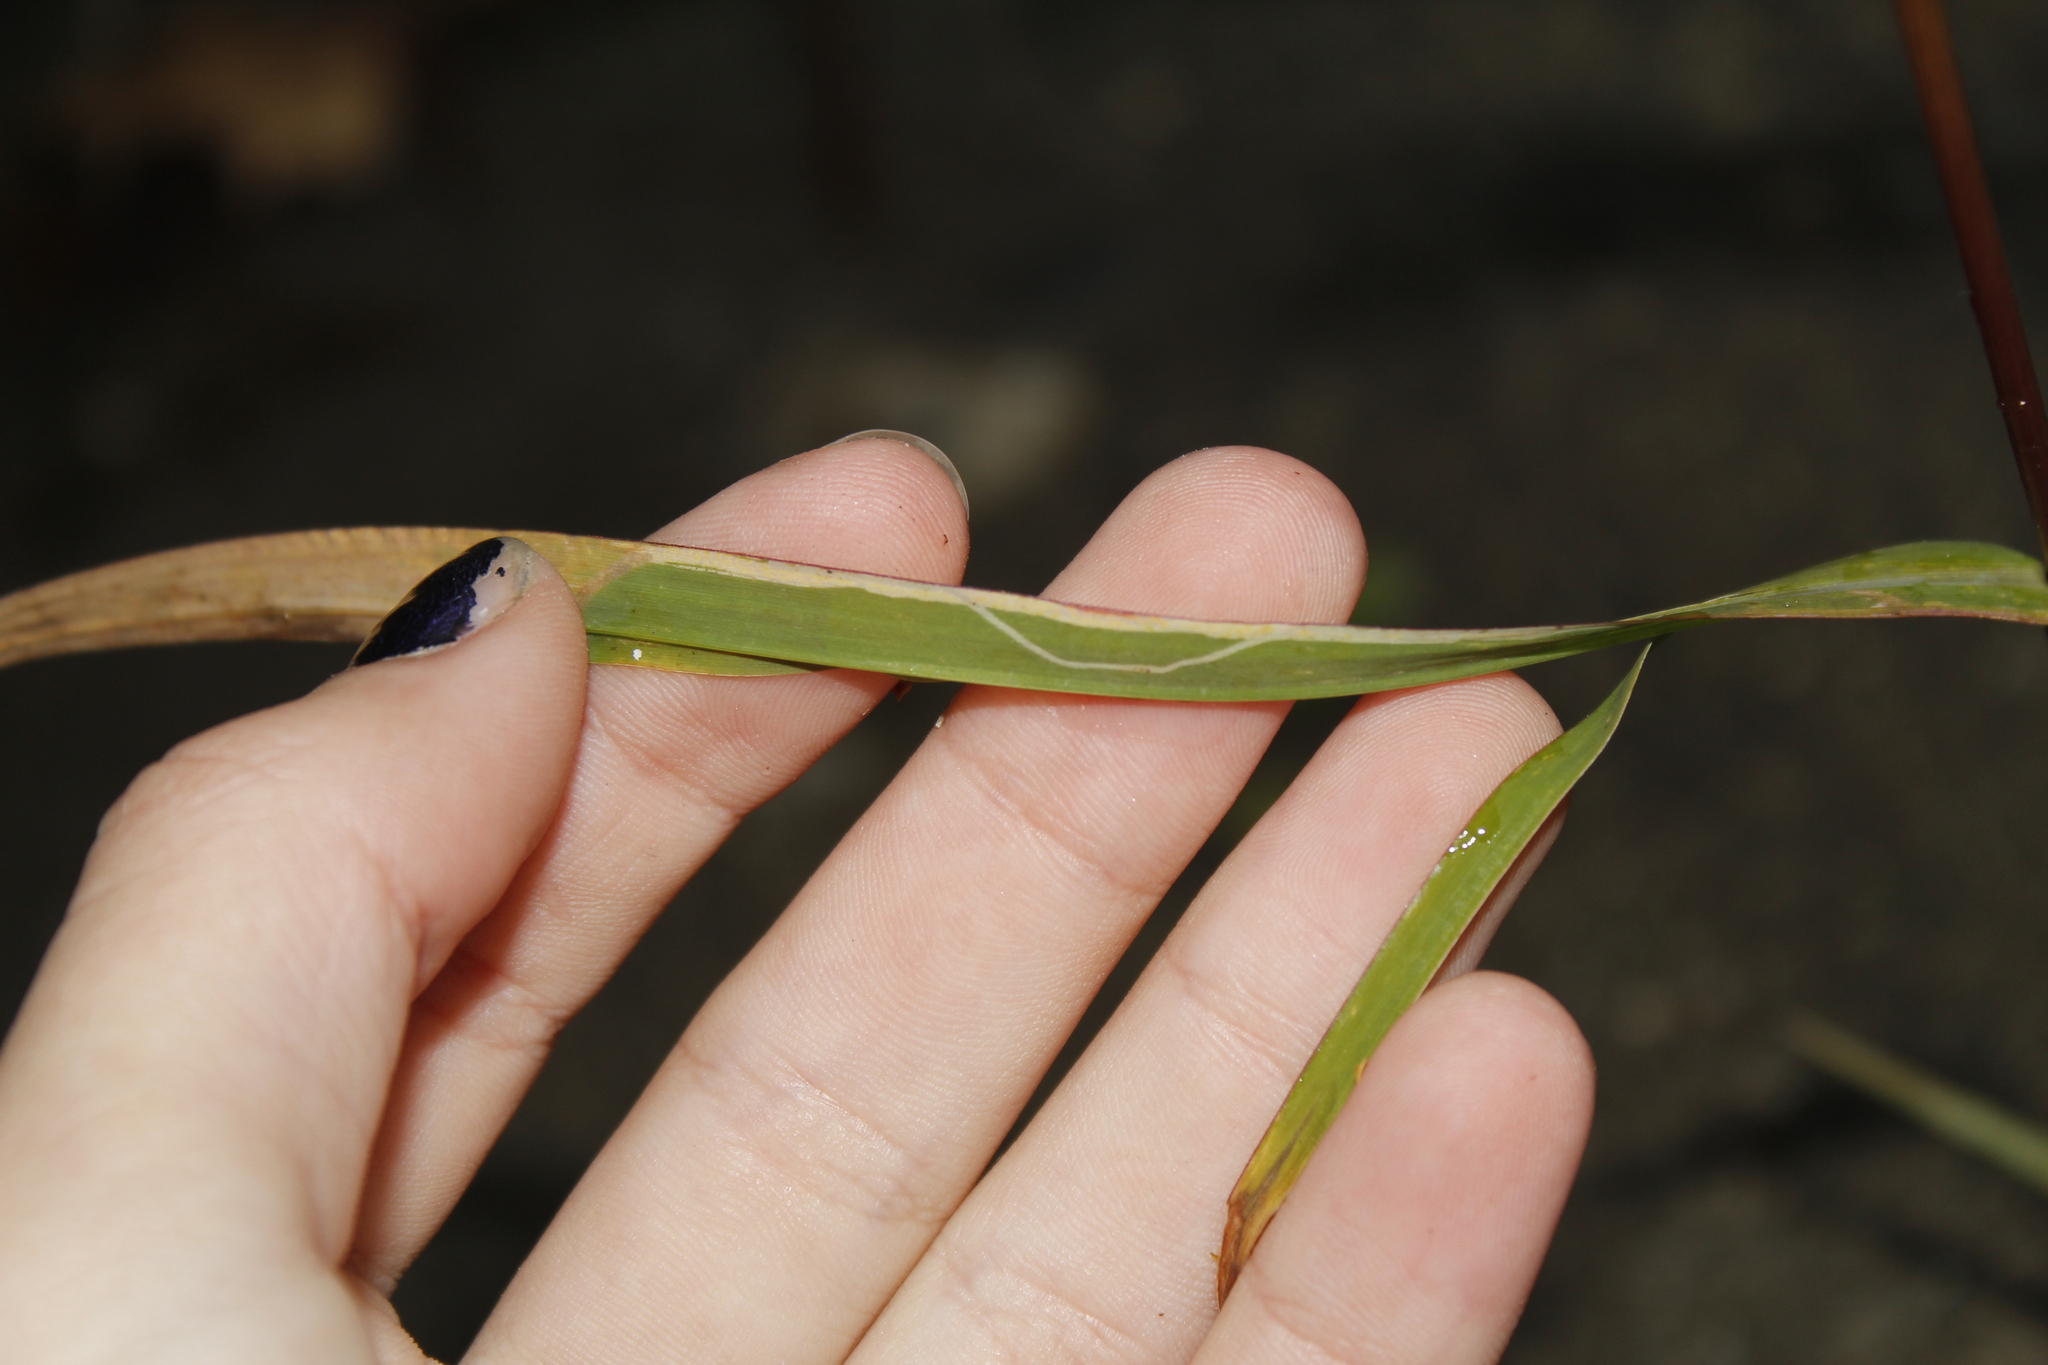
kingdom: Animalia
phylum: Arthropoda
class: Insecta
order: Diptera
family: Agromyzidae
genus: Cerodontha
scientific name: Cerodontha dorsalis
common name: Grass sheathminer fly
